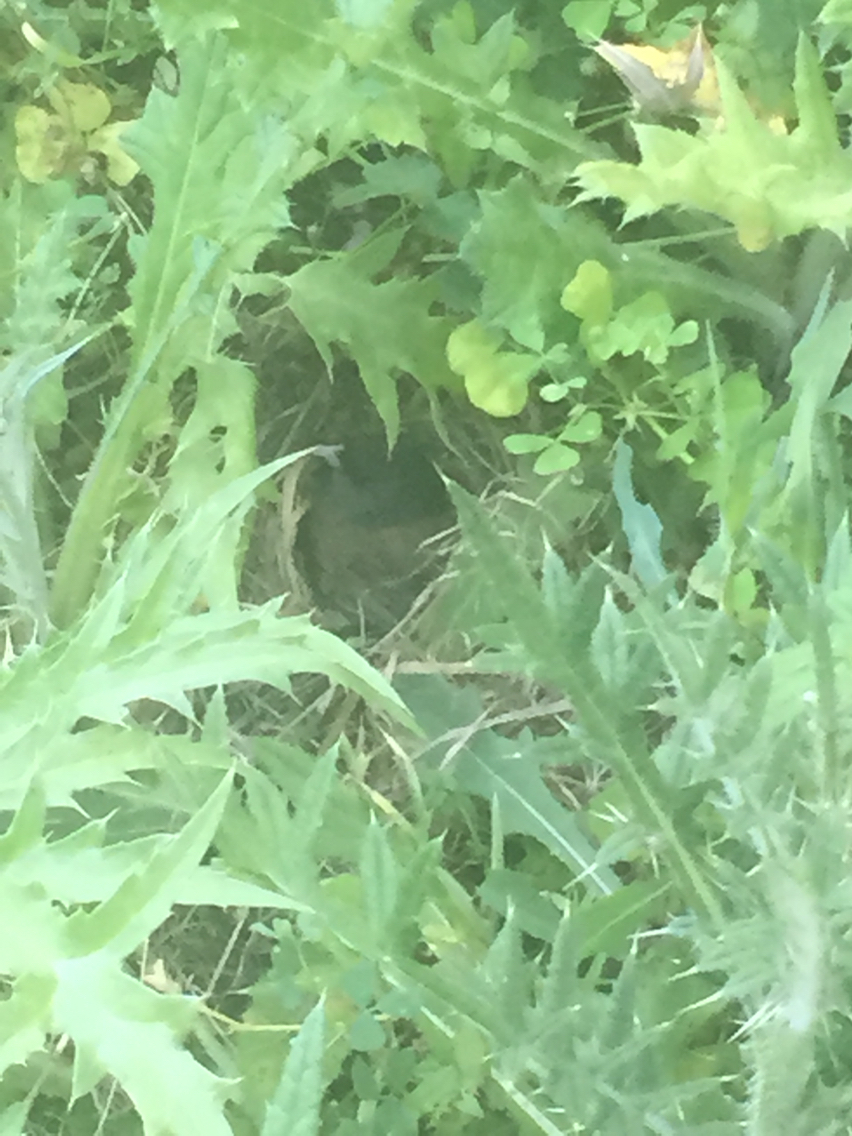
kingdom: Animalia
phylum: Chordata
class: Aves
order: Passeriformes
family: Passerellidae
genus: Junco
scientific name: Junco hyemalis
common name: Dark-eyed junco
